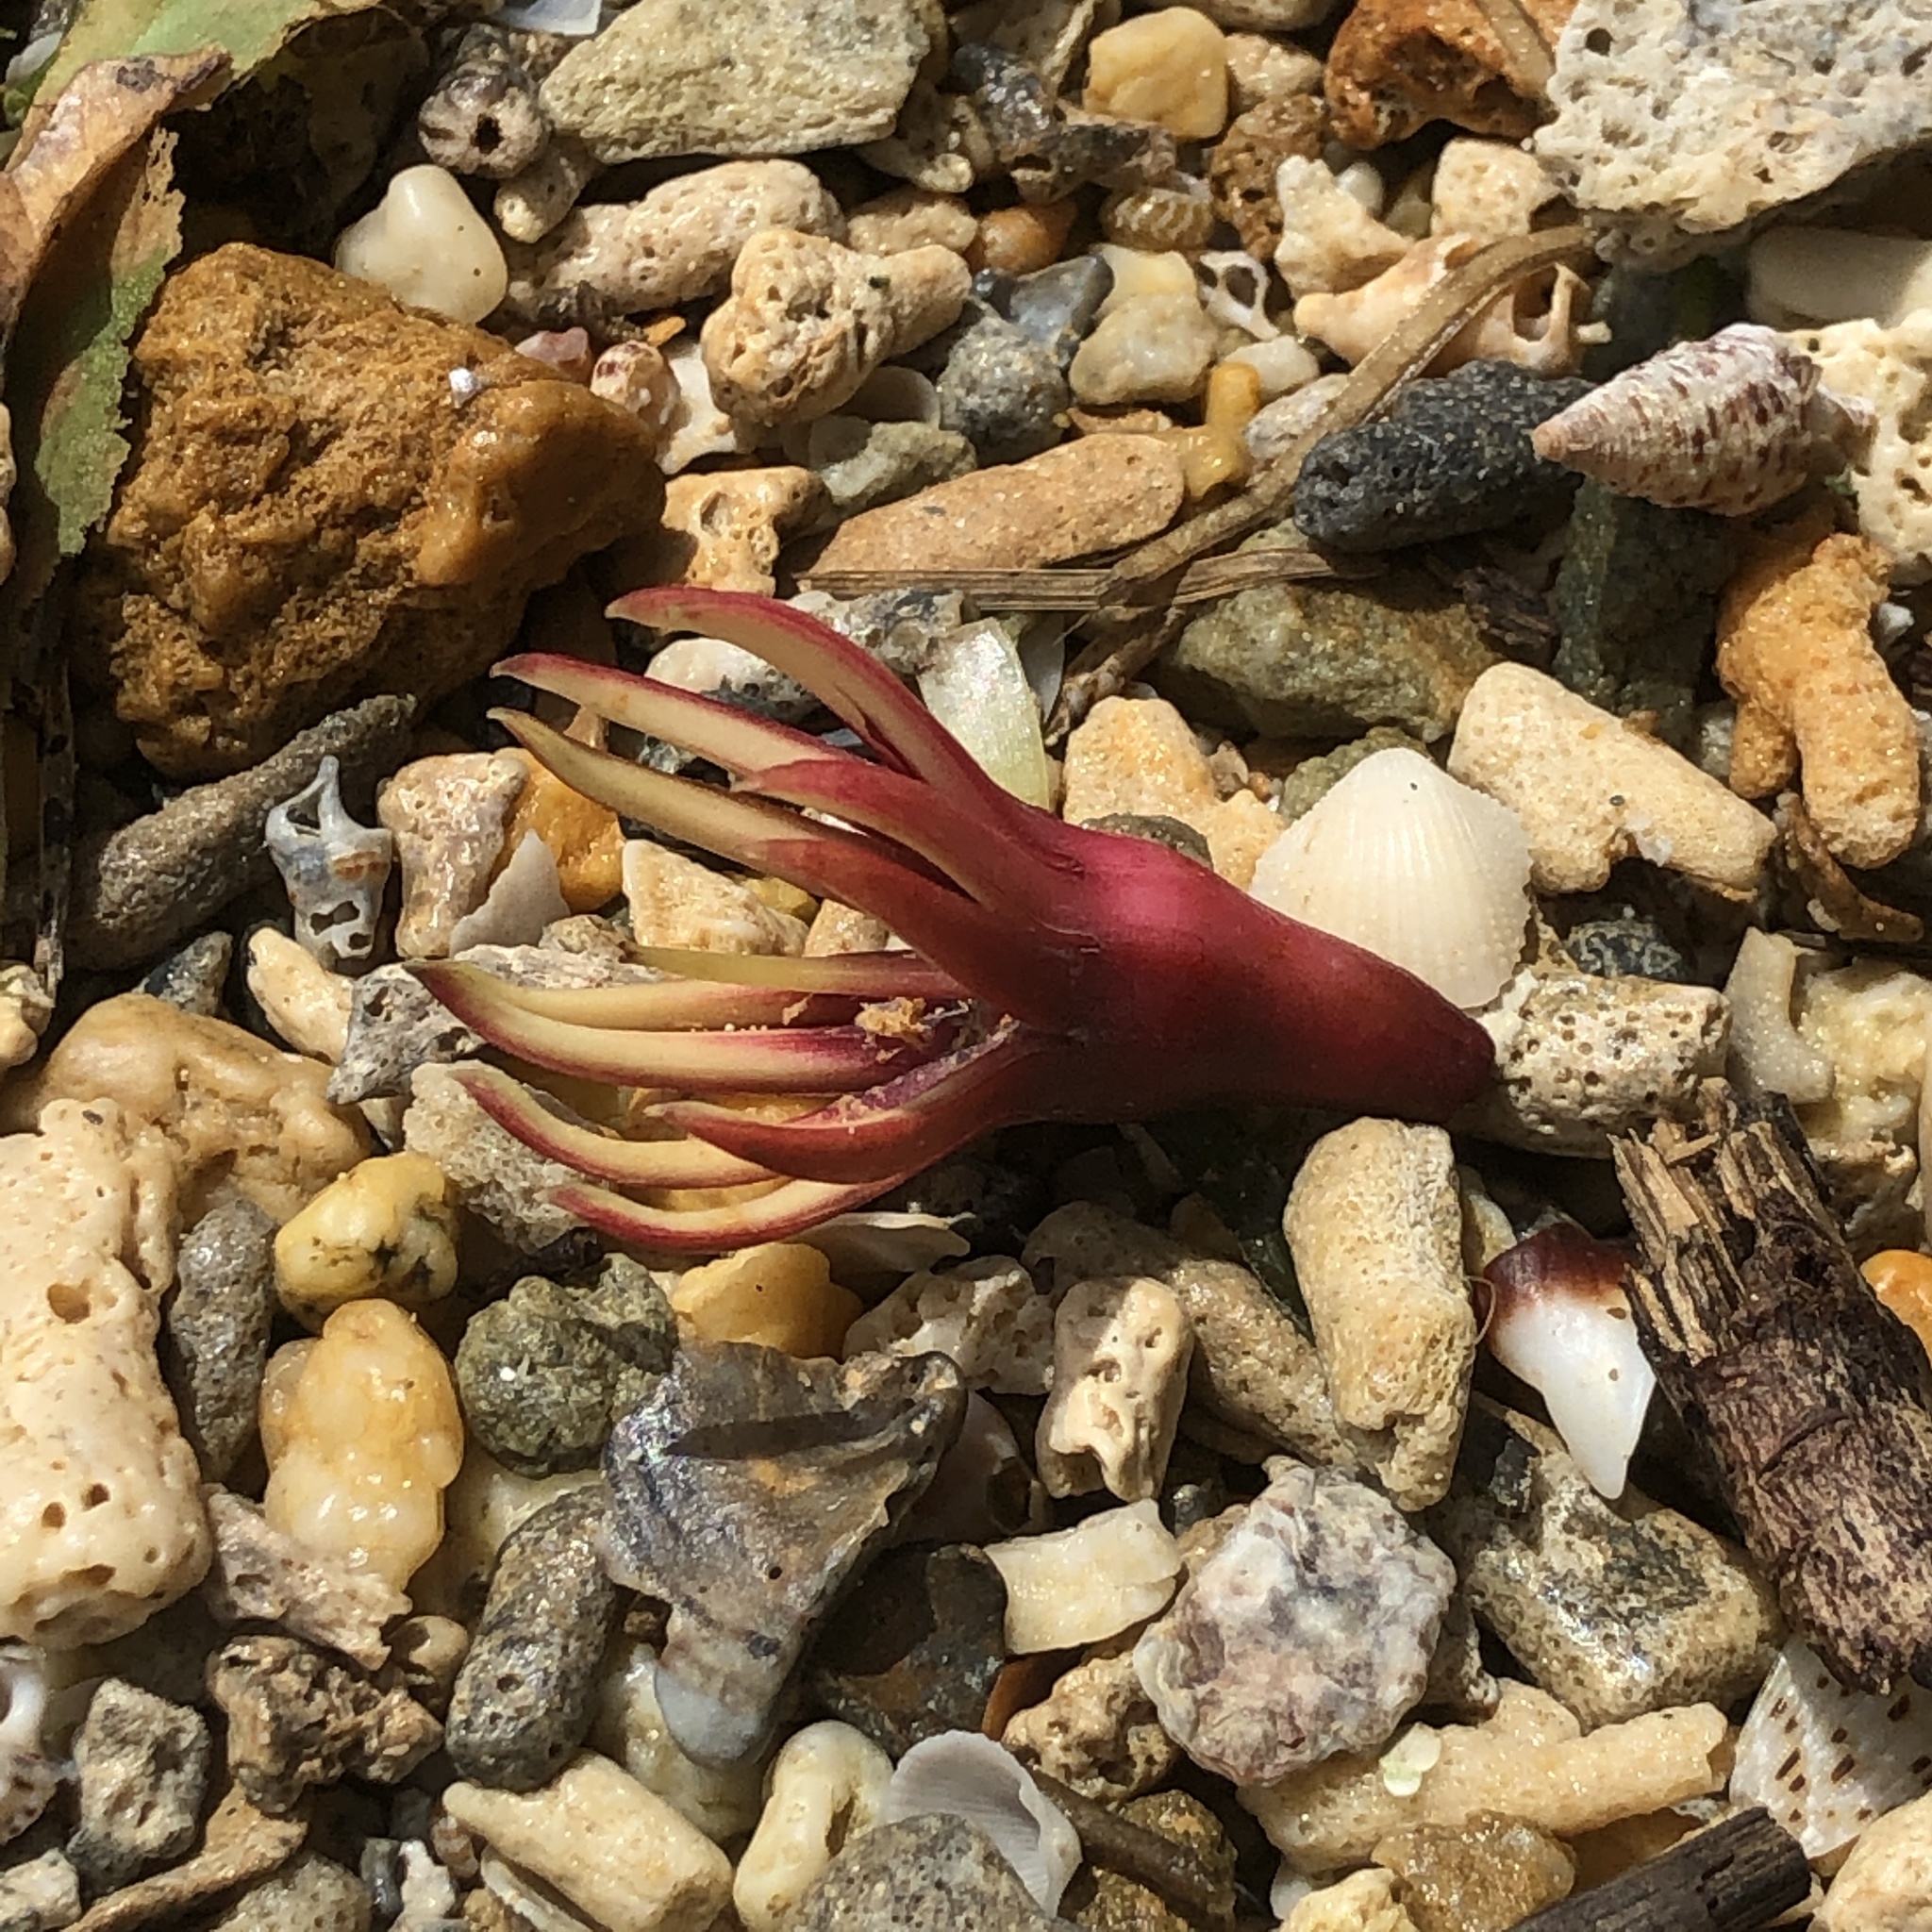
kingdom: Plantae
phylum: Tracheophyta
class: Magnoliopsida
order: Malpighiales
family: Rhizophoraceae
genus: Bruguiera
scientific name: Bruguiera gymnorhiza
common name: Oriental mangrove
